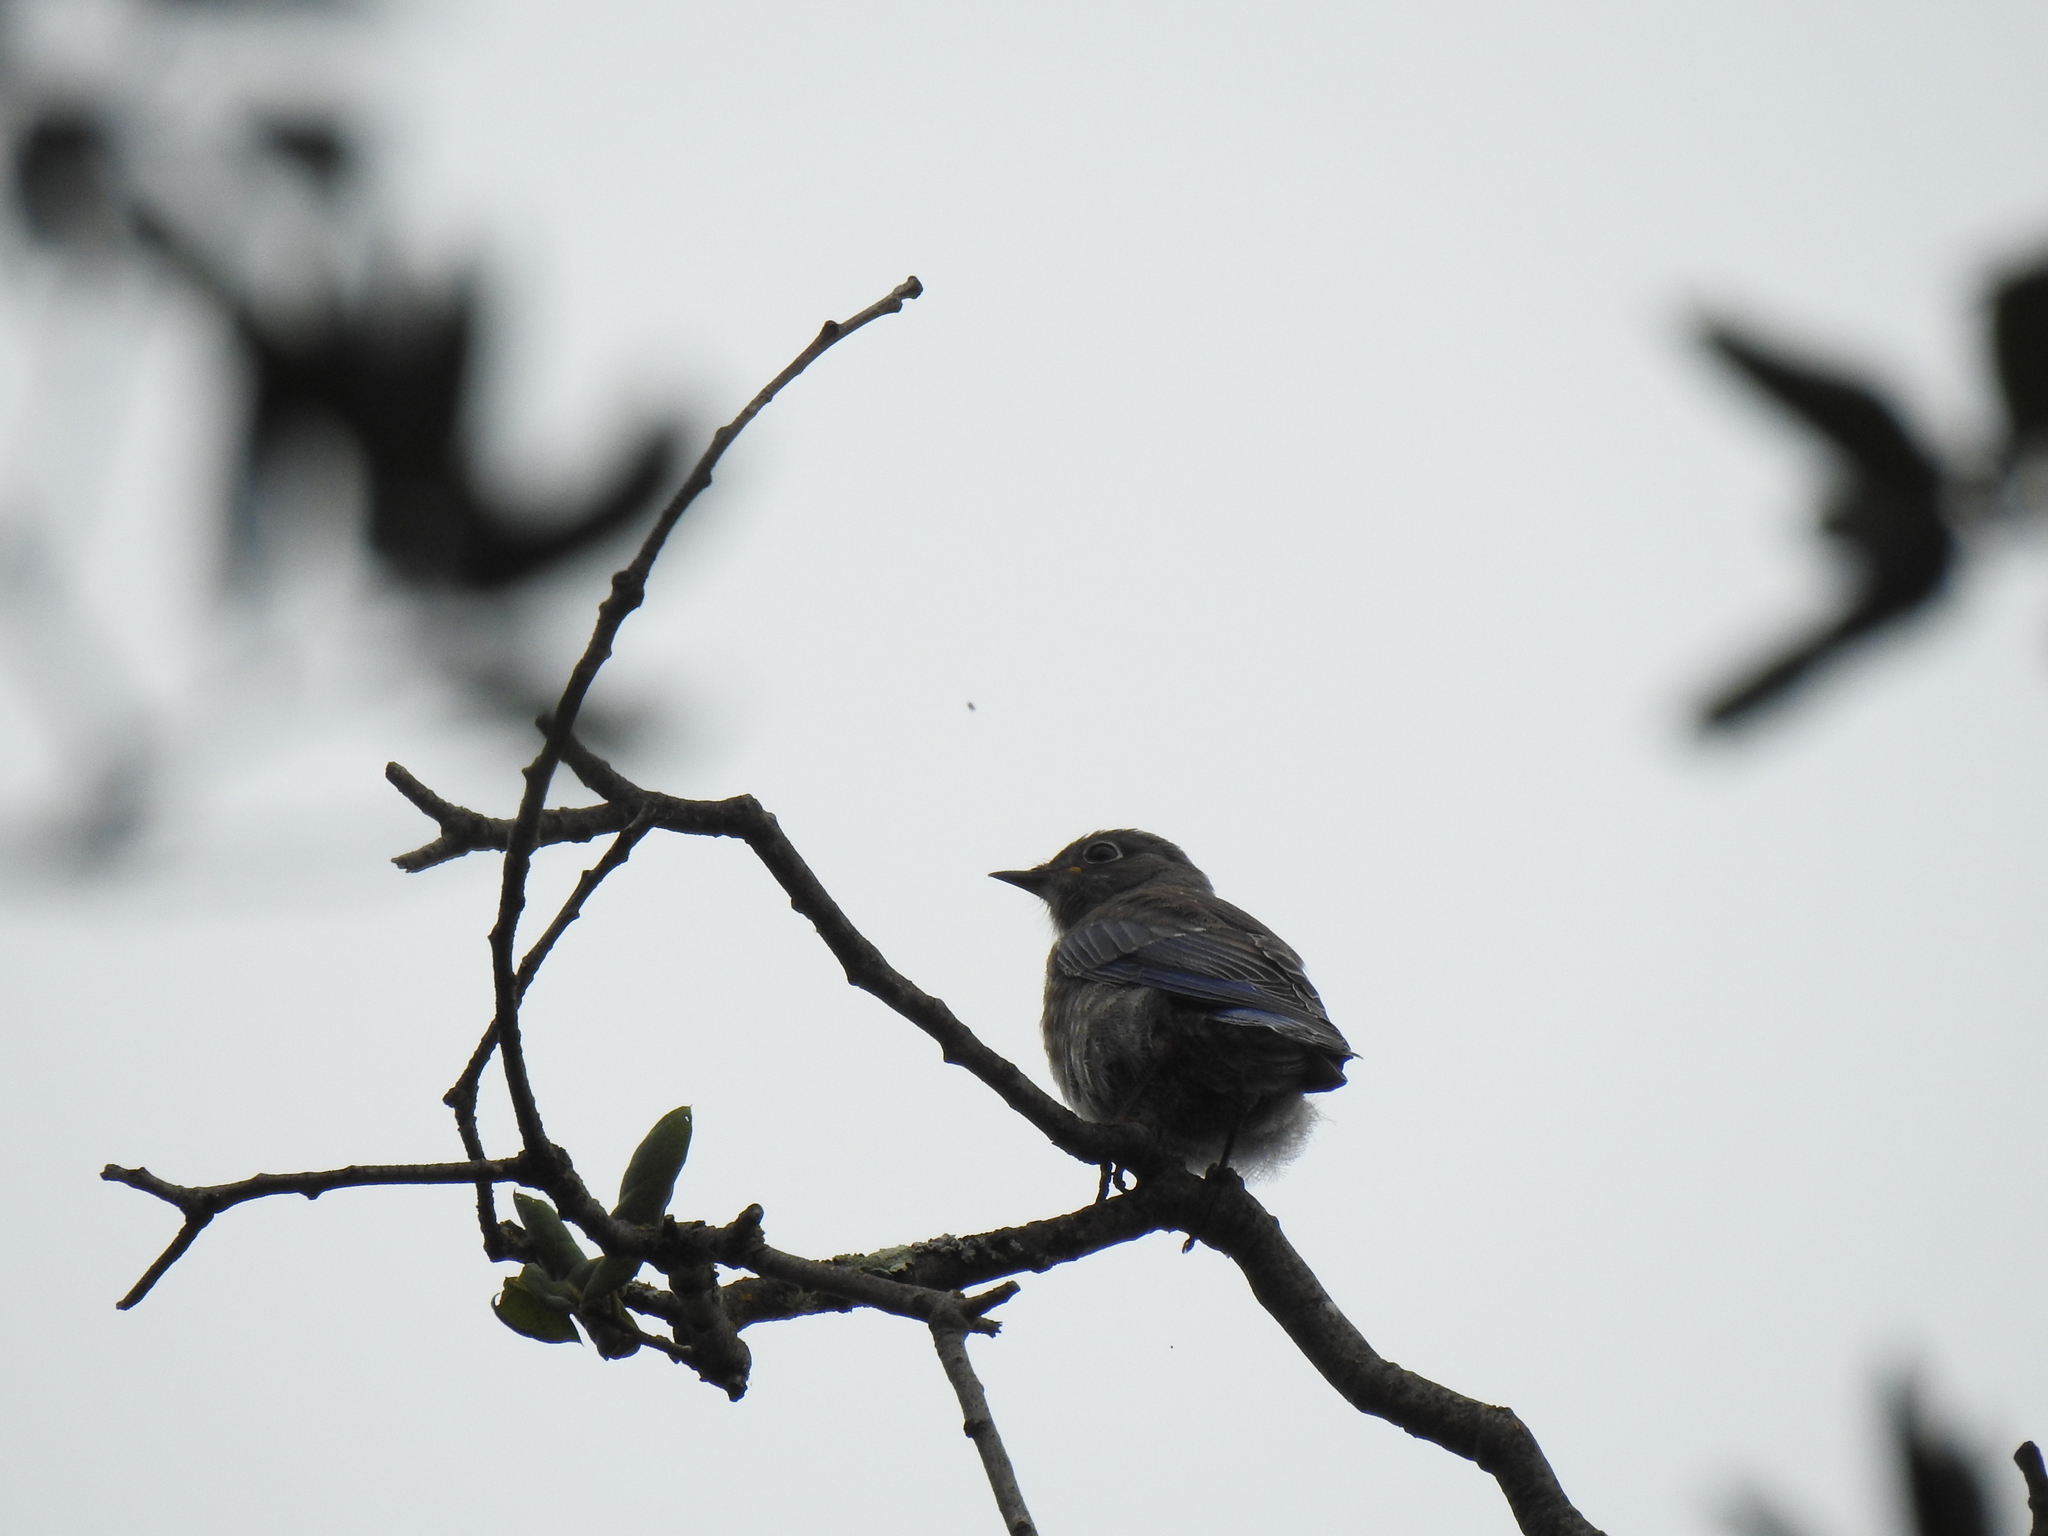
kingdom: Animalia
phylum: Chordata
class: Aves
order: Passeriformes
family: Turdidae
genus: Sialia
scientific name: Sialia mexicana
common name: Western bluebird
